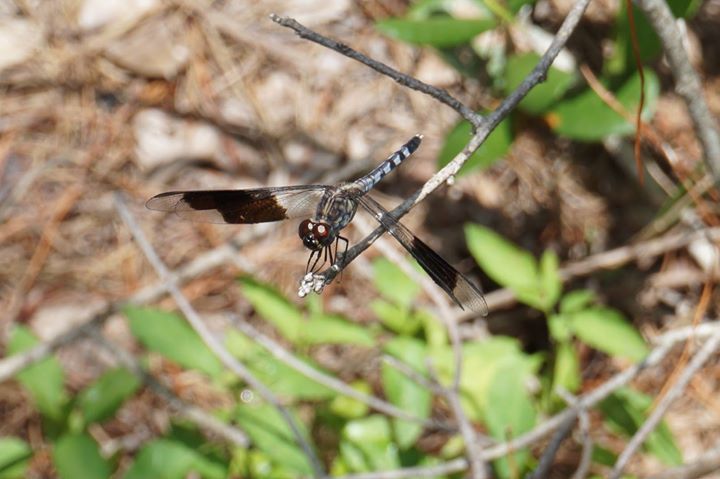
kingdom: Animalia
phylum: Arthropoda
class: Insecta
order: Odonata
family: Libellulidae
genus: Erythrodiplax
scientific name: Erythrodiplax umbrata
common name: Band-winged dragonlet
